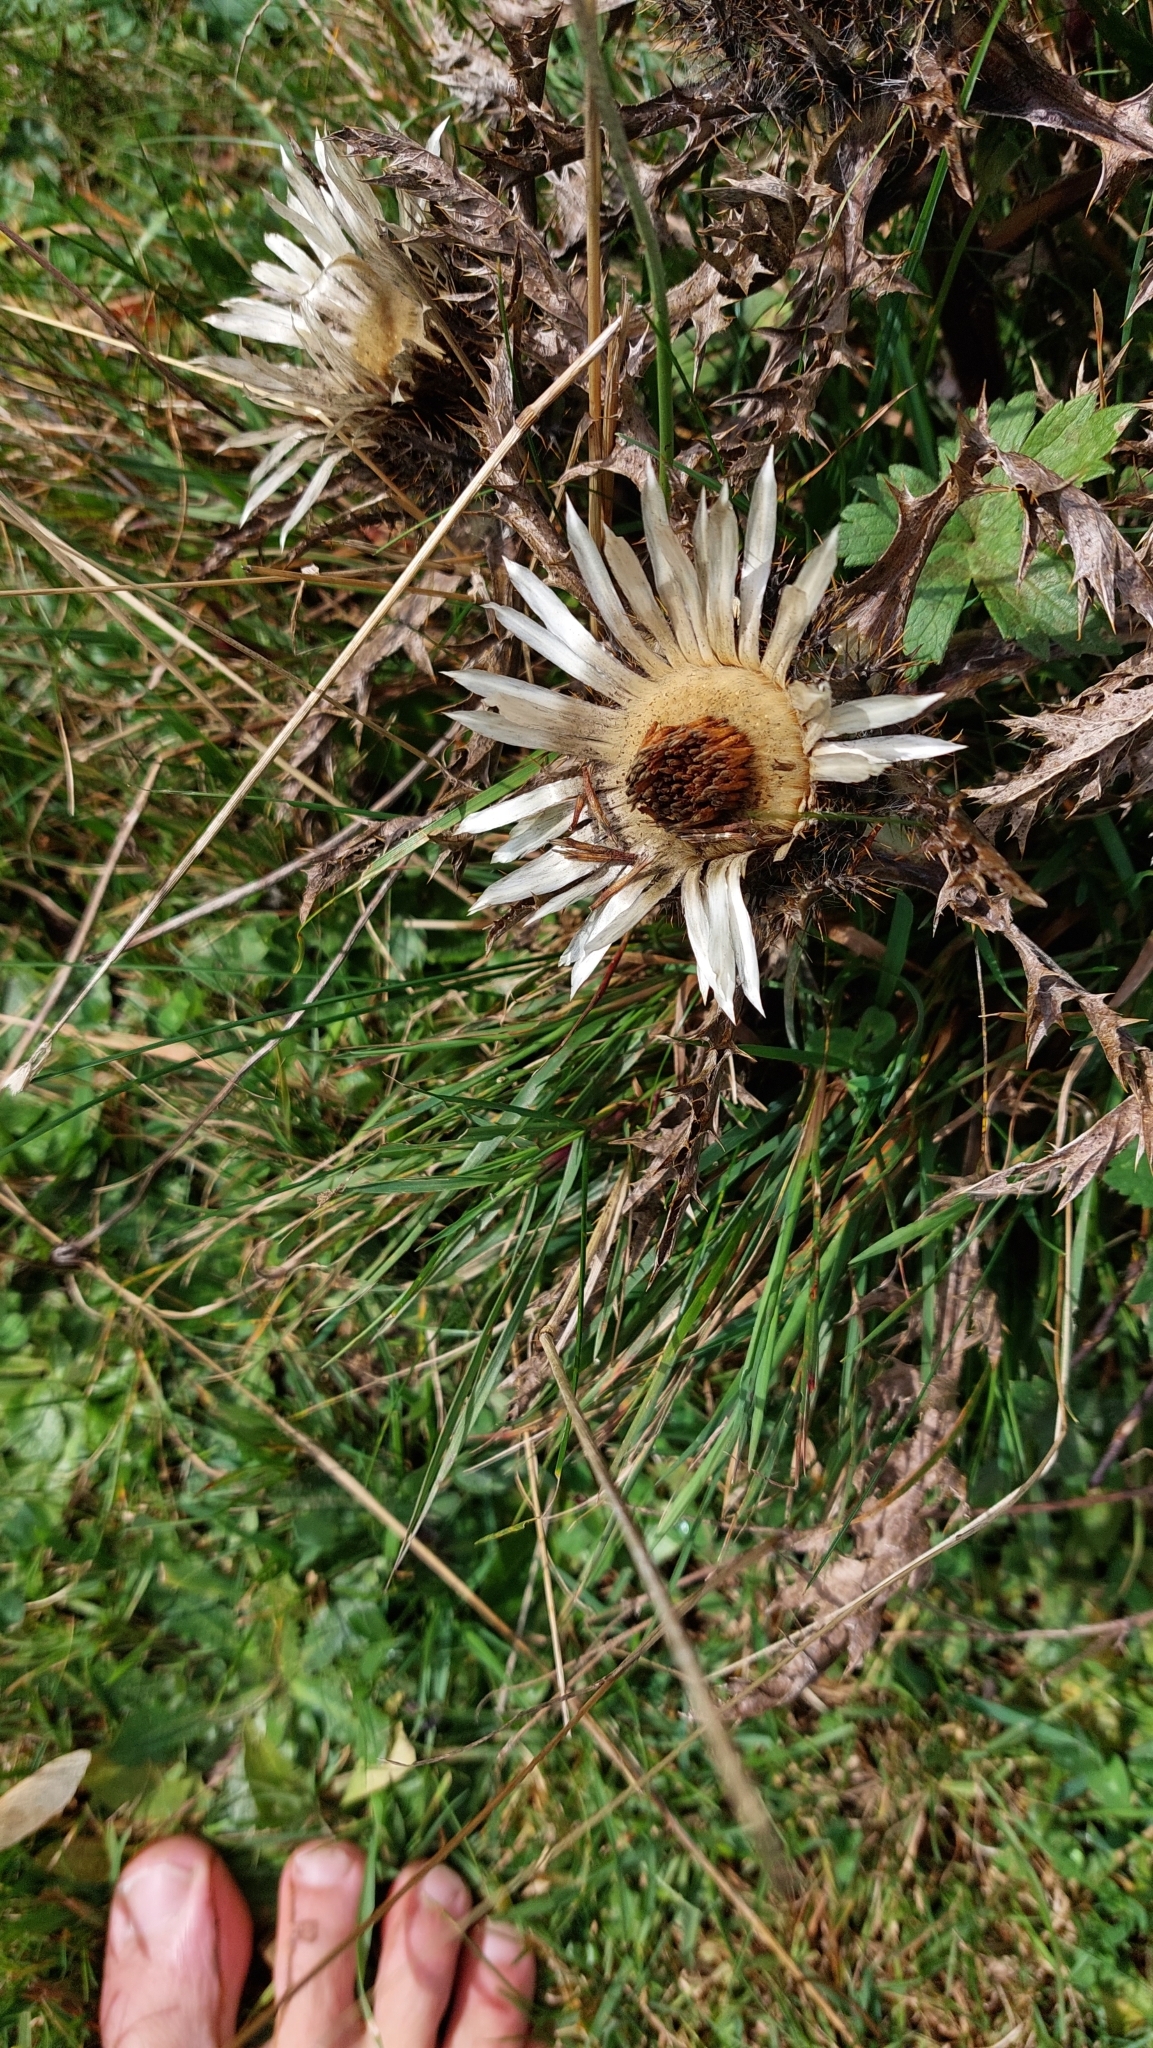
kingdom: Plantae
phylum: Tracheophyta
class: Magnoliopsida
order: Asterales
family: Asteraceae
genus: Carlina
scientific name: Carlina acaulis
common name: Stemless carline thistle
